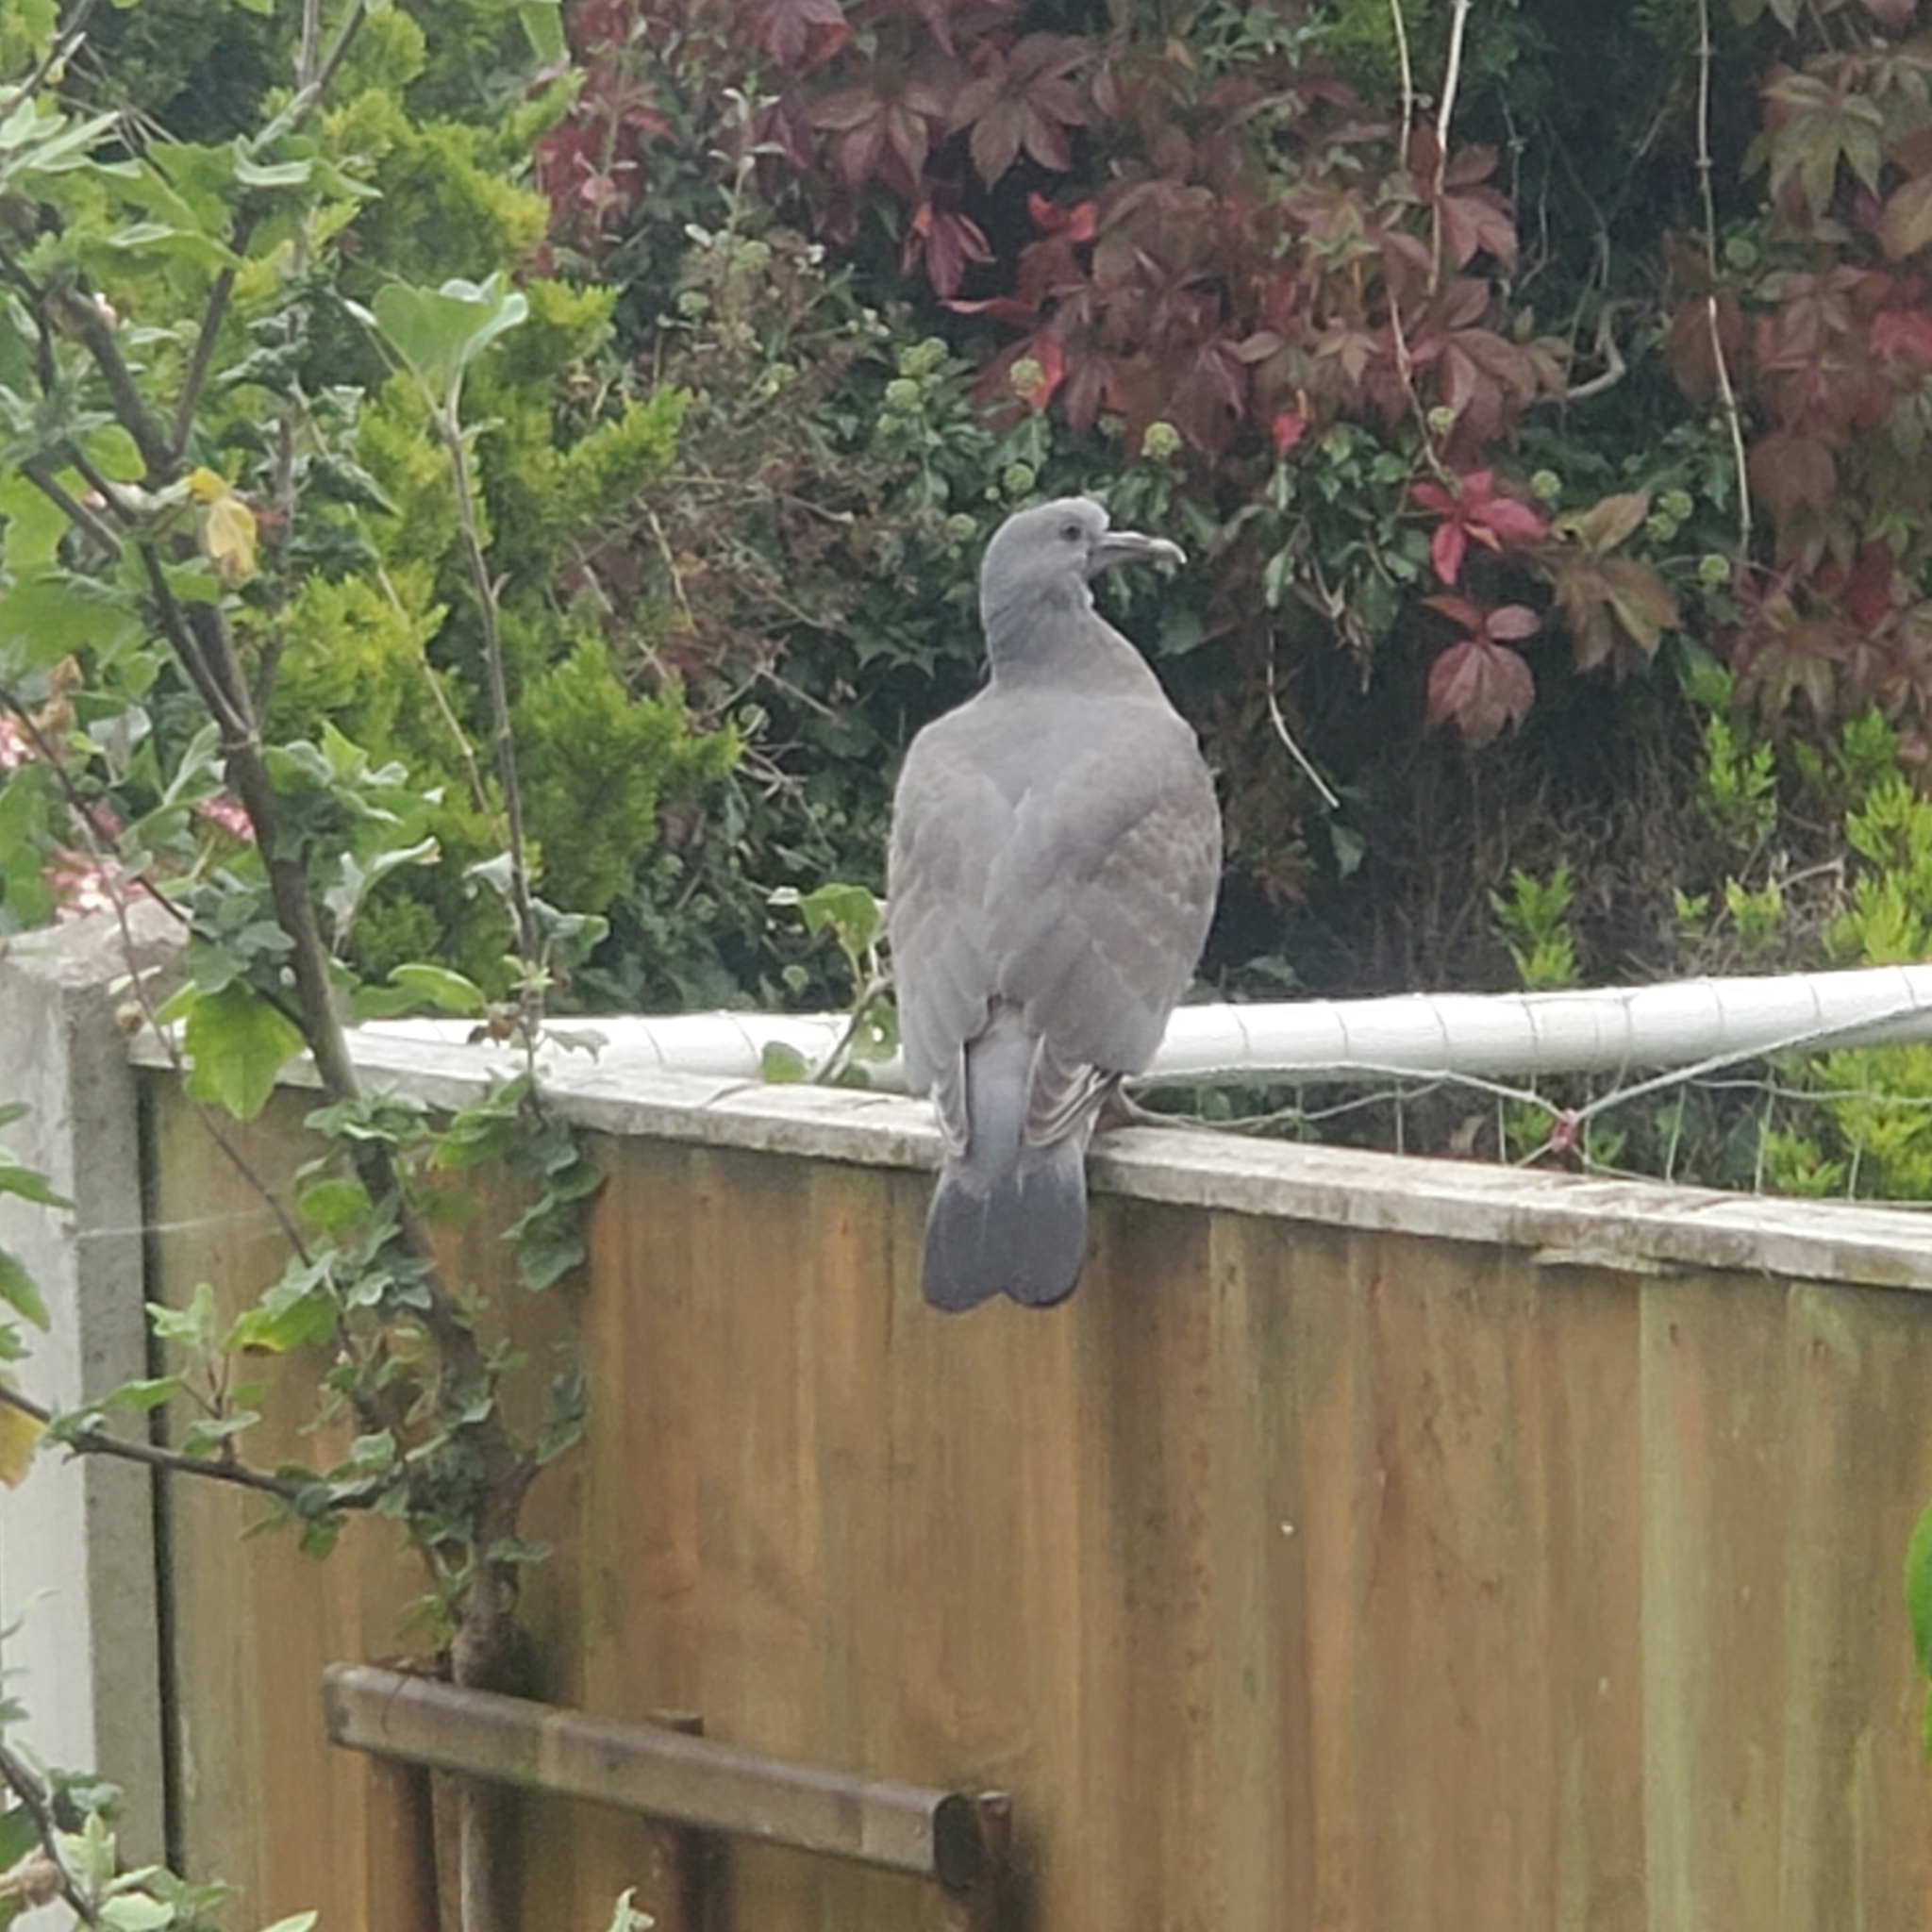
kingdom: Animalia
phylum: Chordata
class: Aves
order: Columbiformes
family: Columbidae
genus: Columba
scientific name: Columba palumbus
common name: Common wood pigeon
